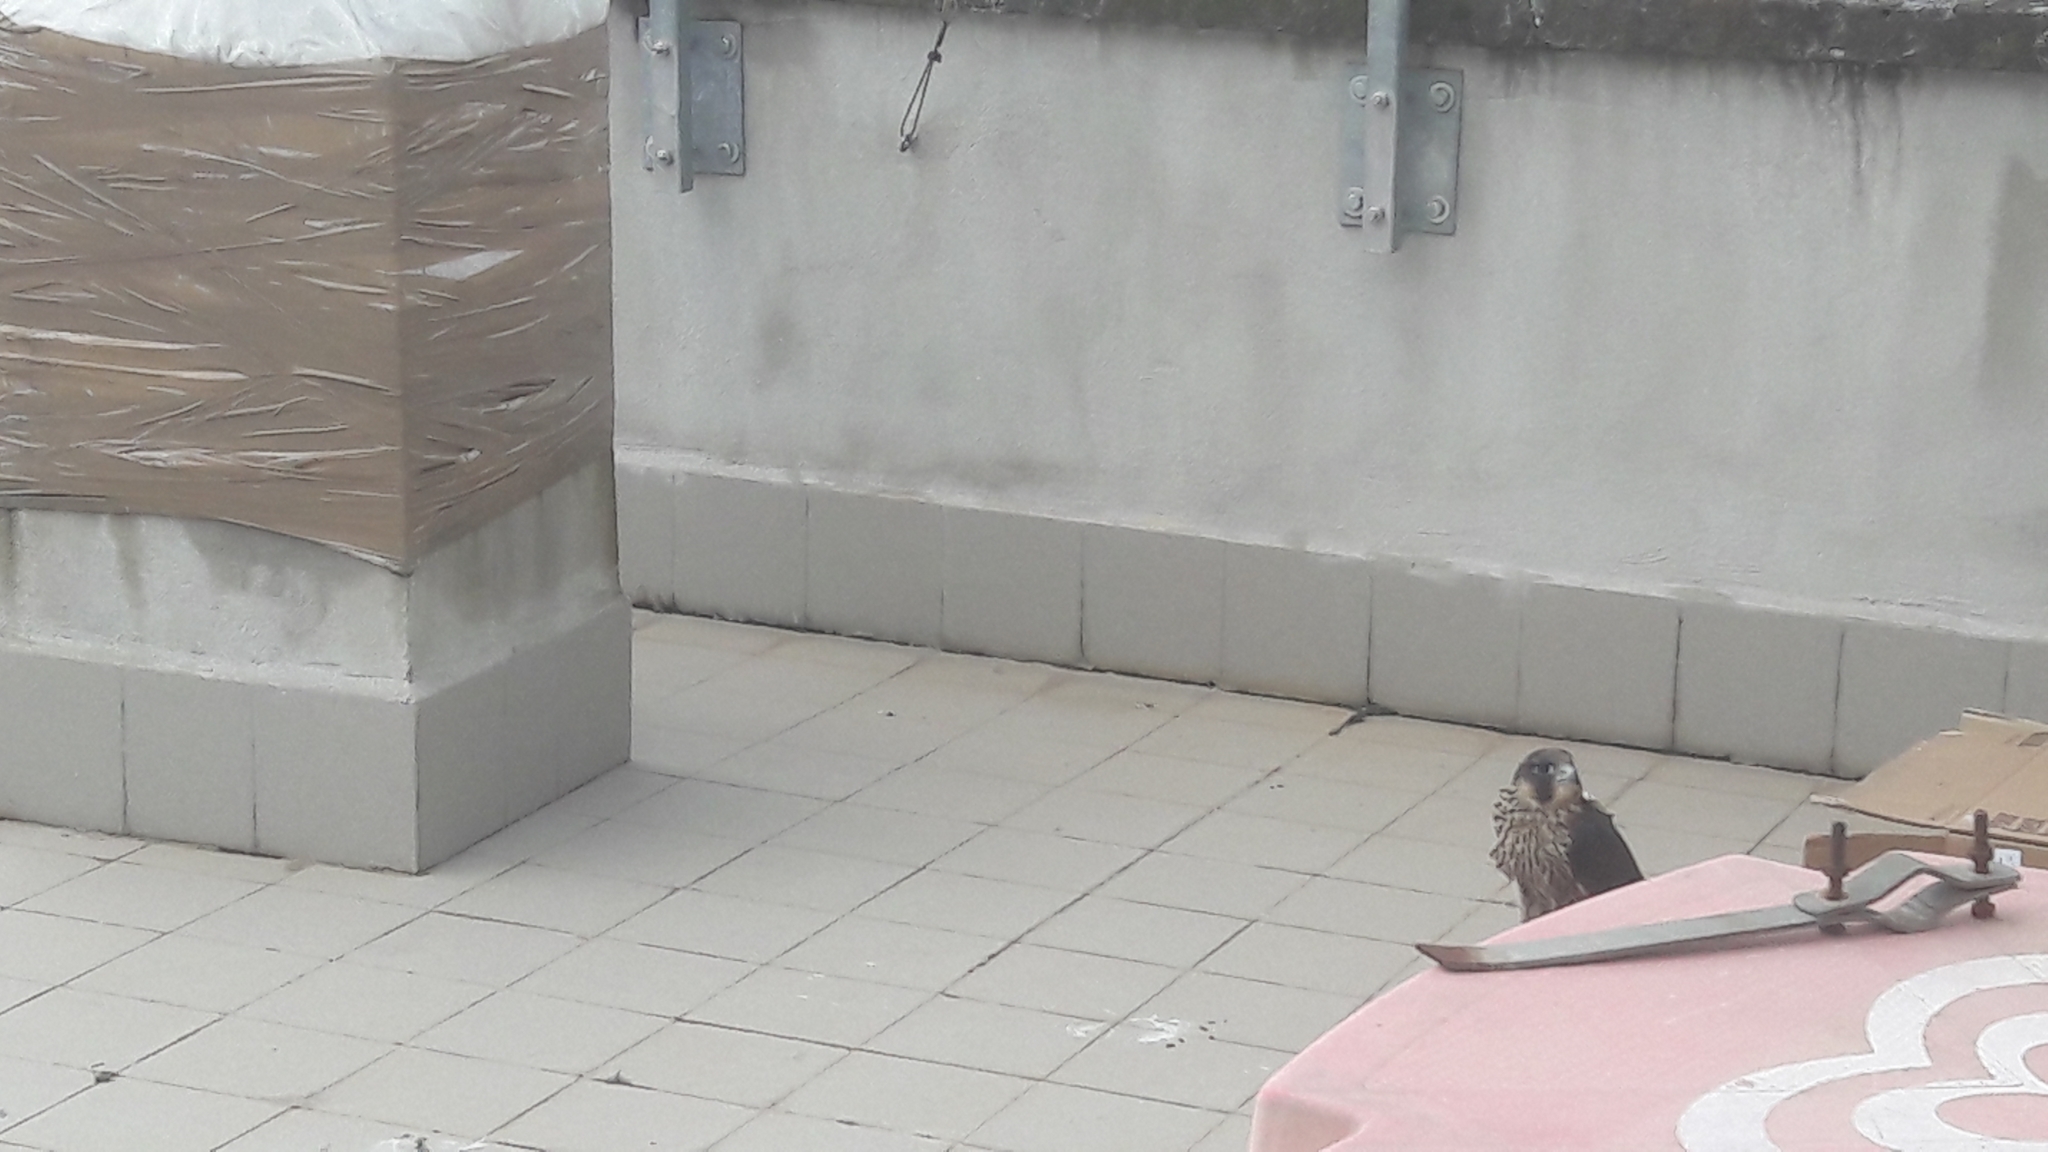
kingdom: Animalia
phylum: Chordata
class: Aves
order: Falconiformes
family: Falconidae
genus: Falco
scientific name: Falco peregrinus
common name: Peregrine falcon
